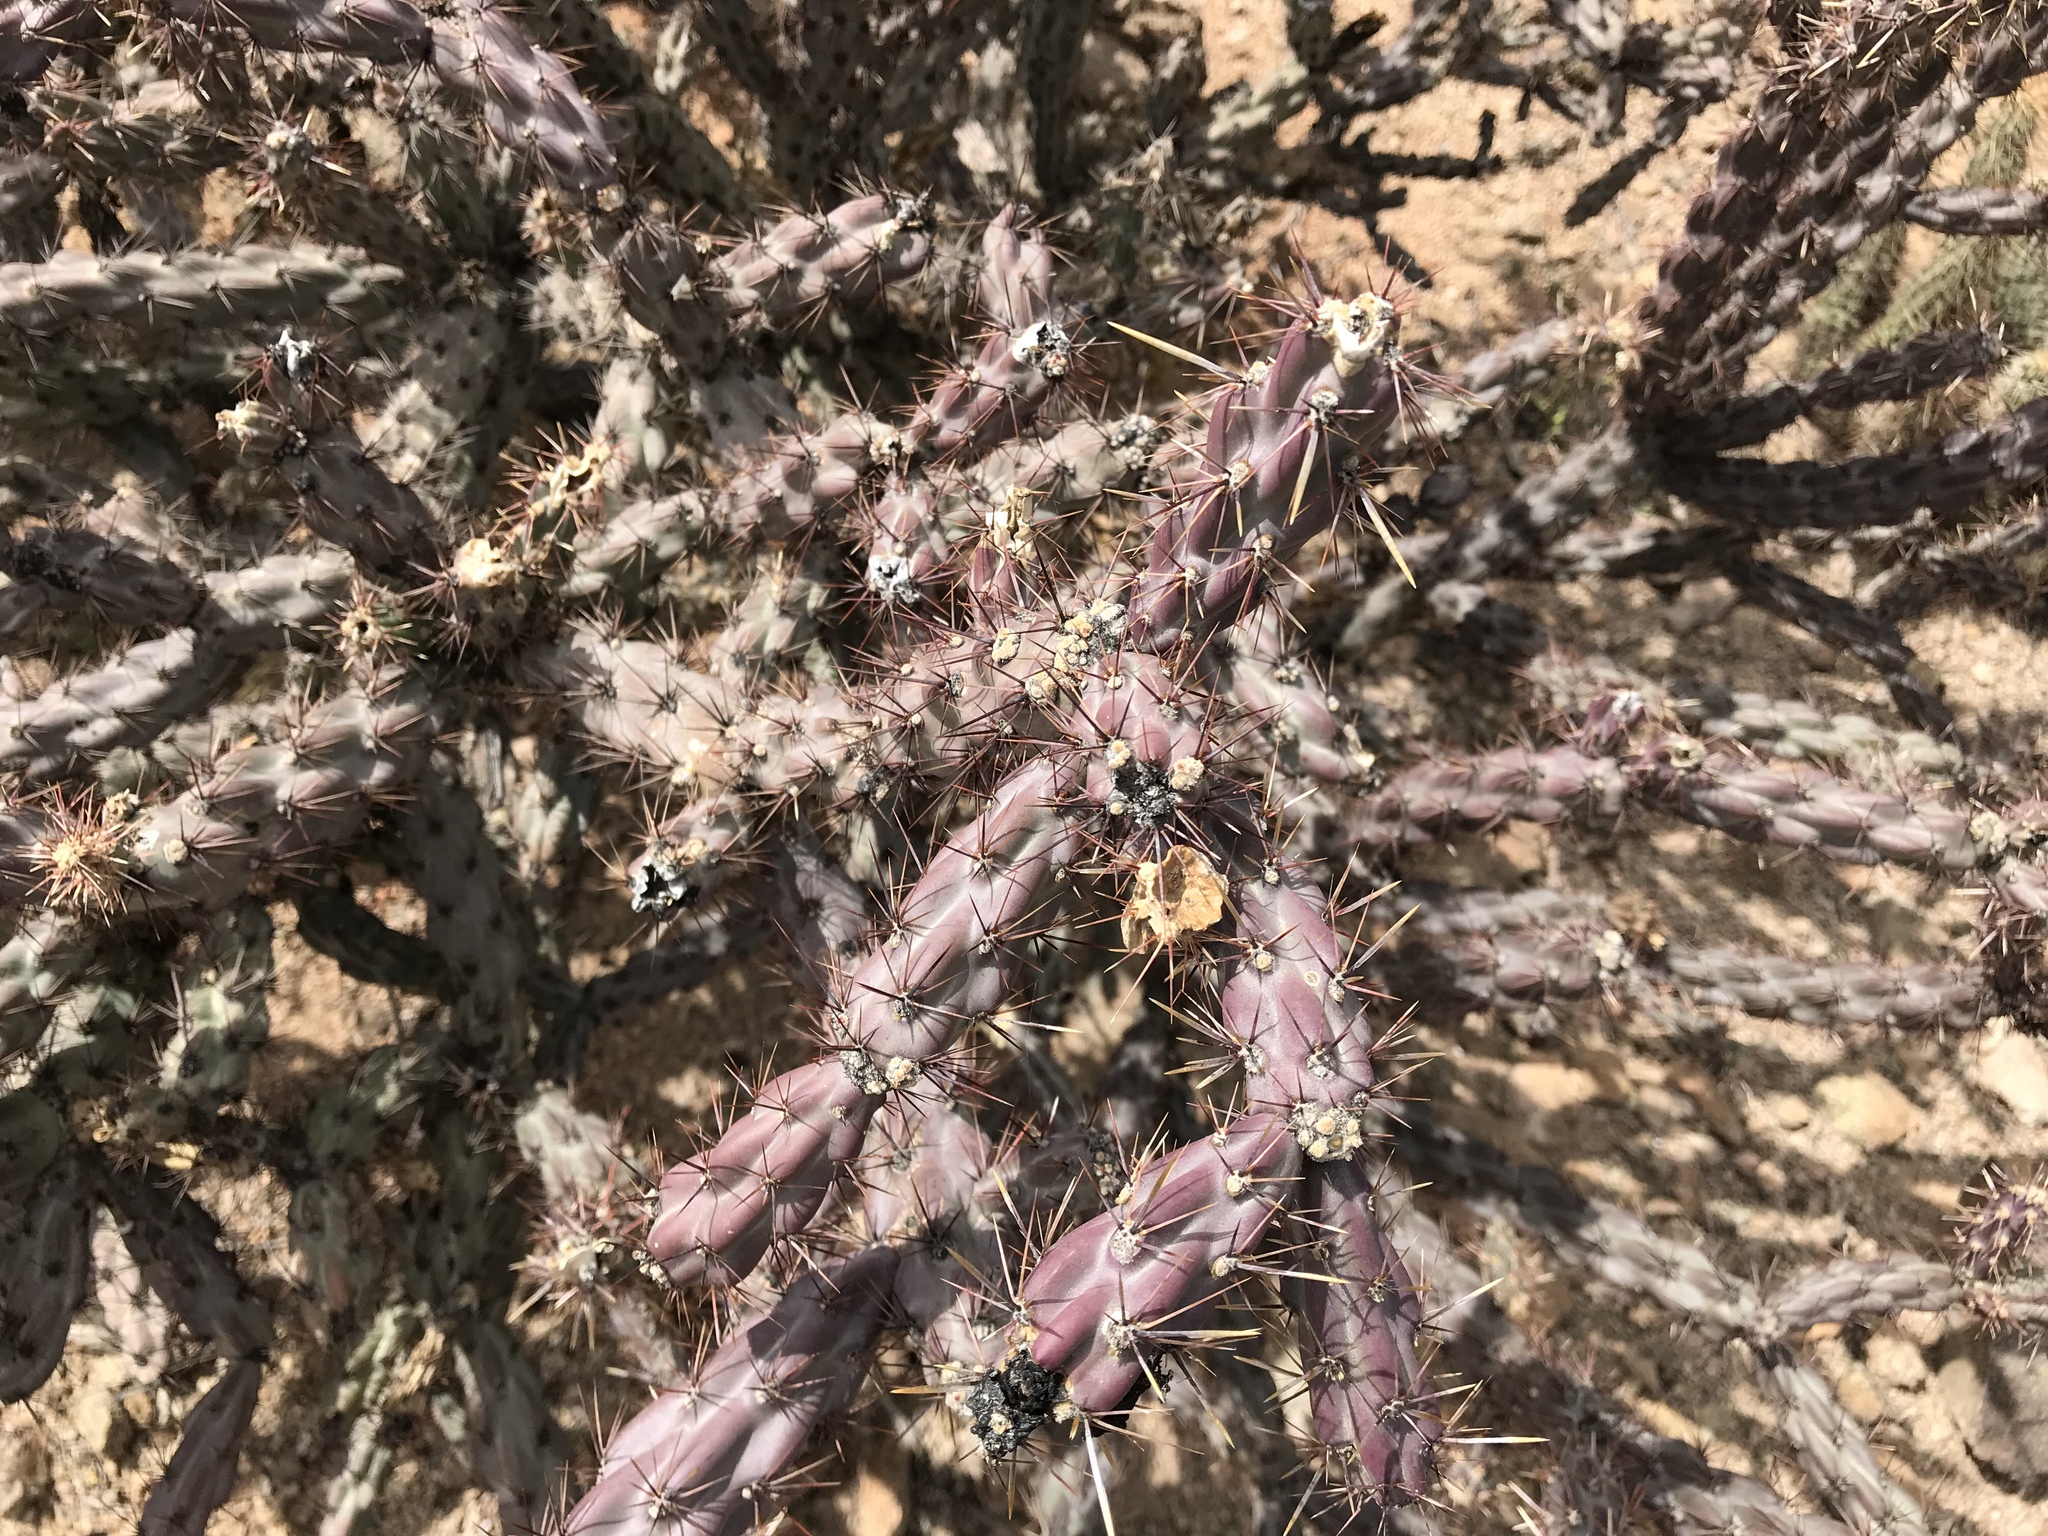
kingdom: Plantae
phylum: Tracheophyta
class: Magnoliopsida
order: Caryophyllales
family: Cactaceae
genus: Cylindropuntia
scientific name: Cylindropuntia acanthocarpa
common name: Buckhorn cholla
